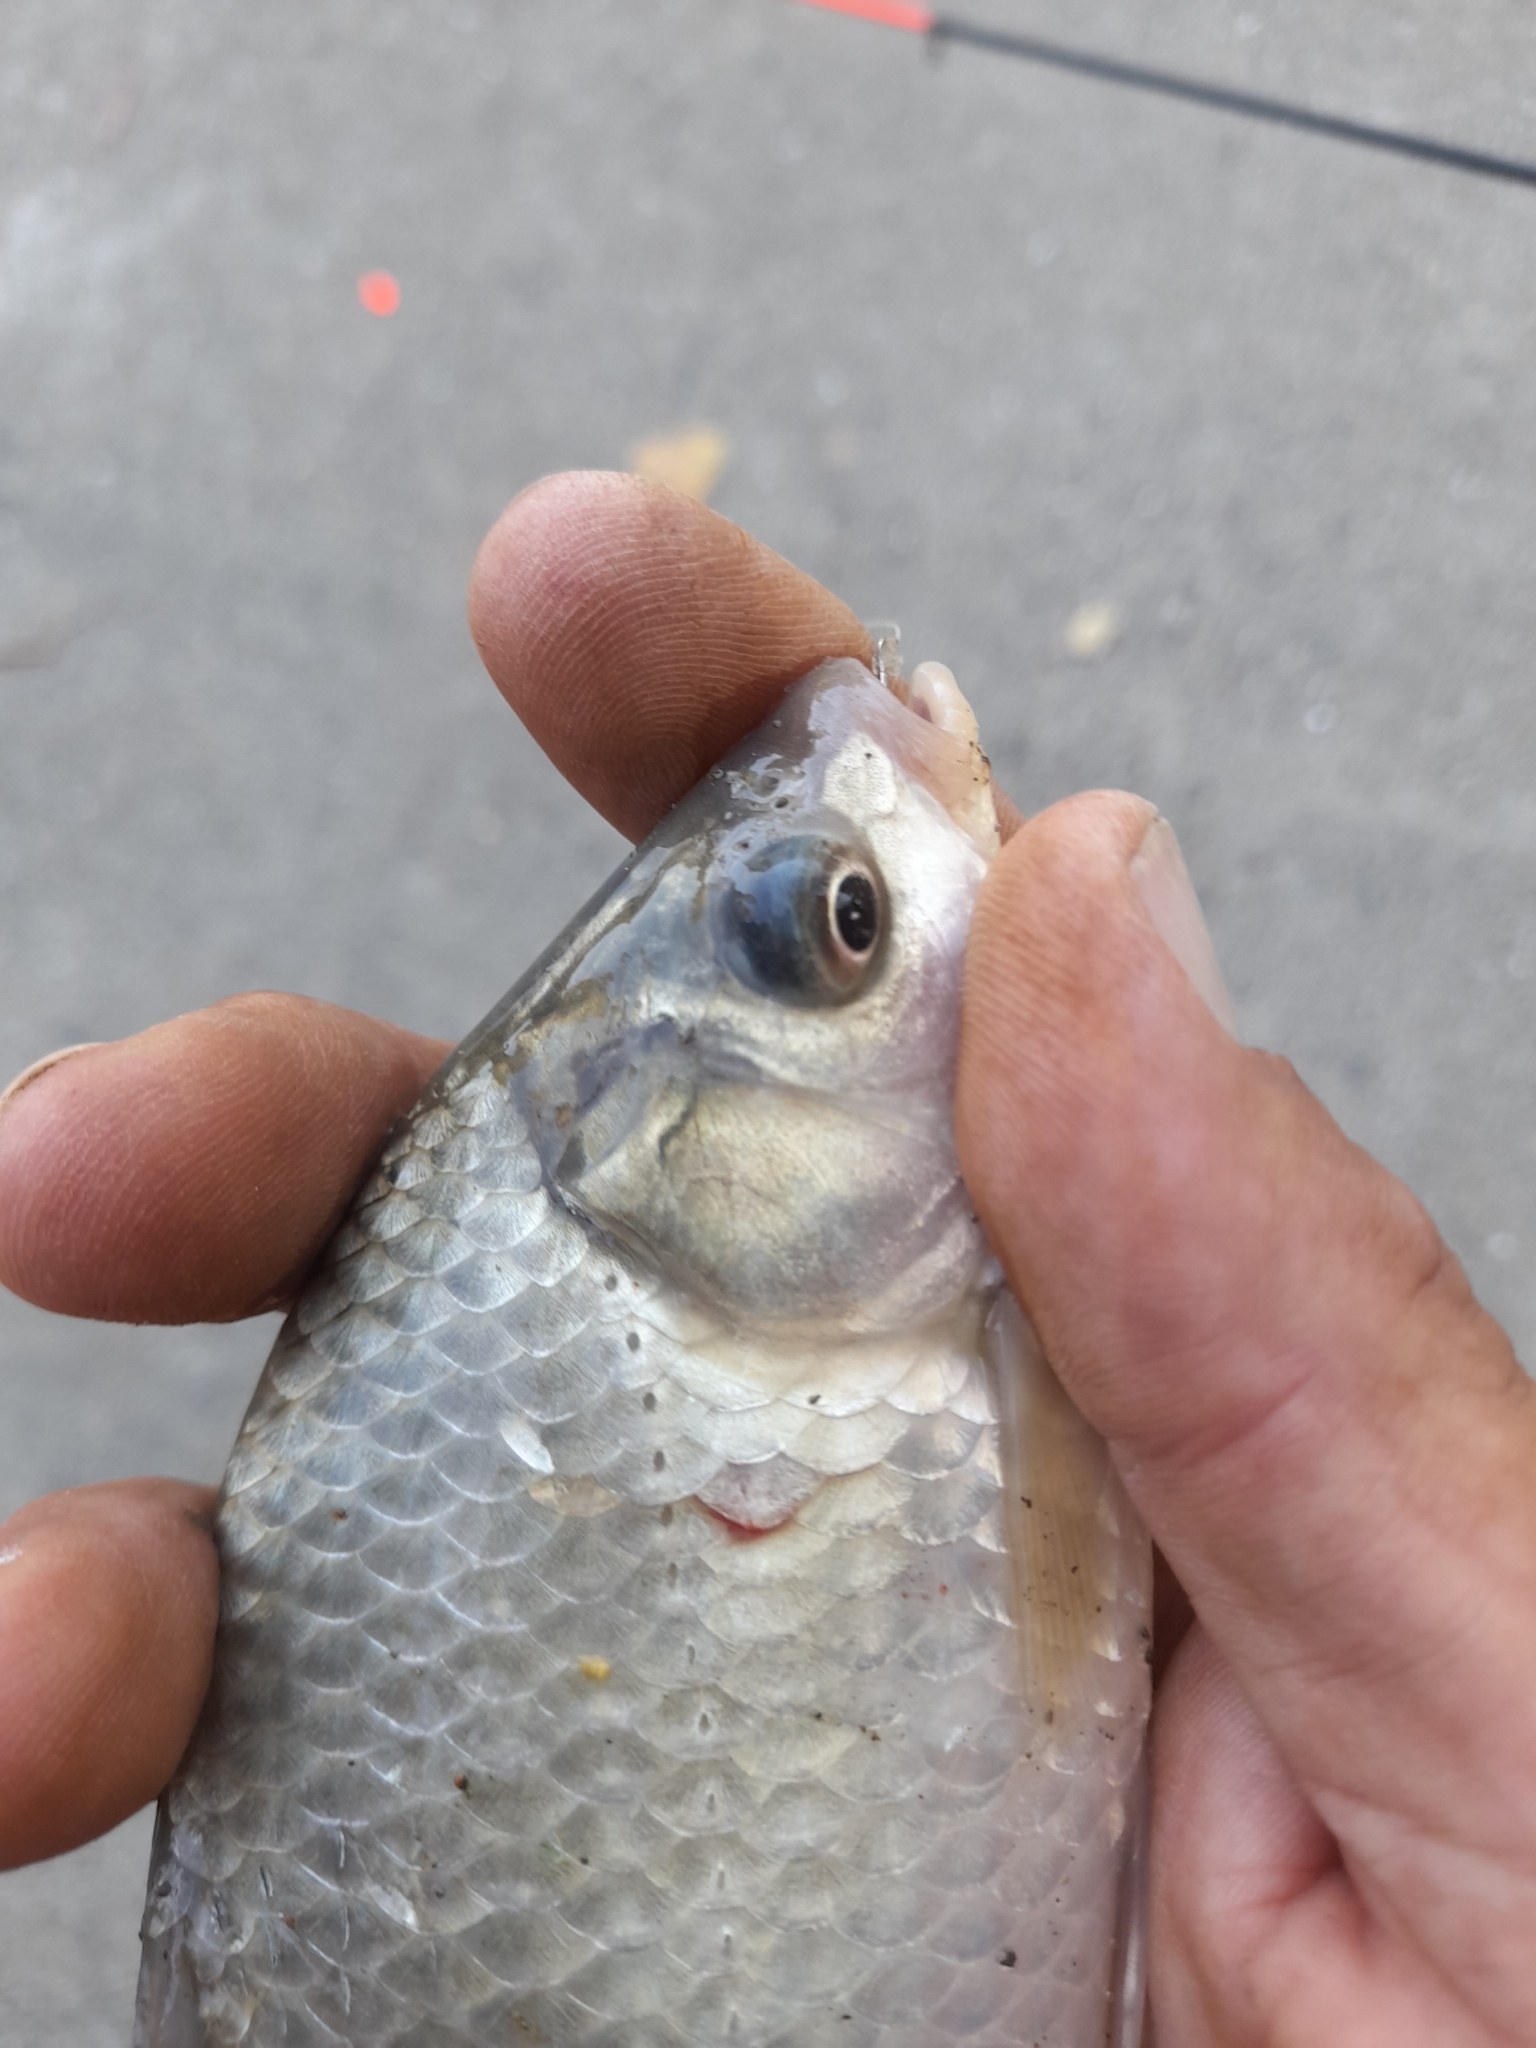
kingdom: Animalia
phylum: Chordata
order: Cypriniformes
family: Cyprinidae
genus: Carassius
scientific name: Carassius gibelio
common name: Prussian carp
